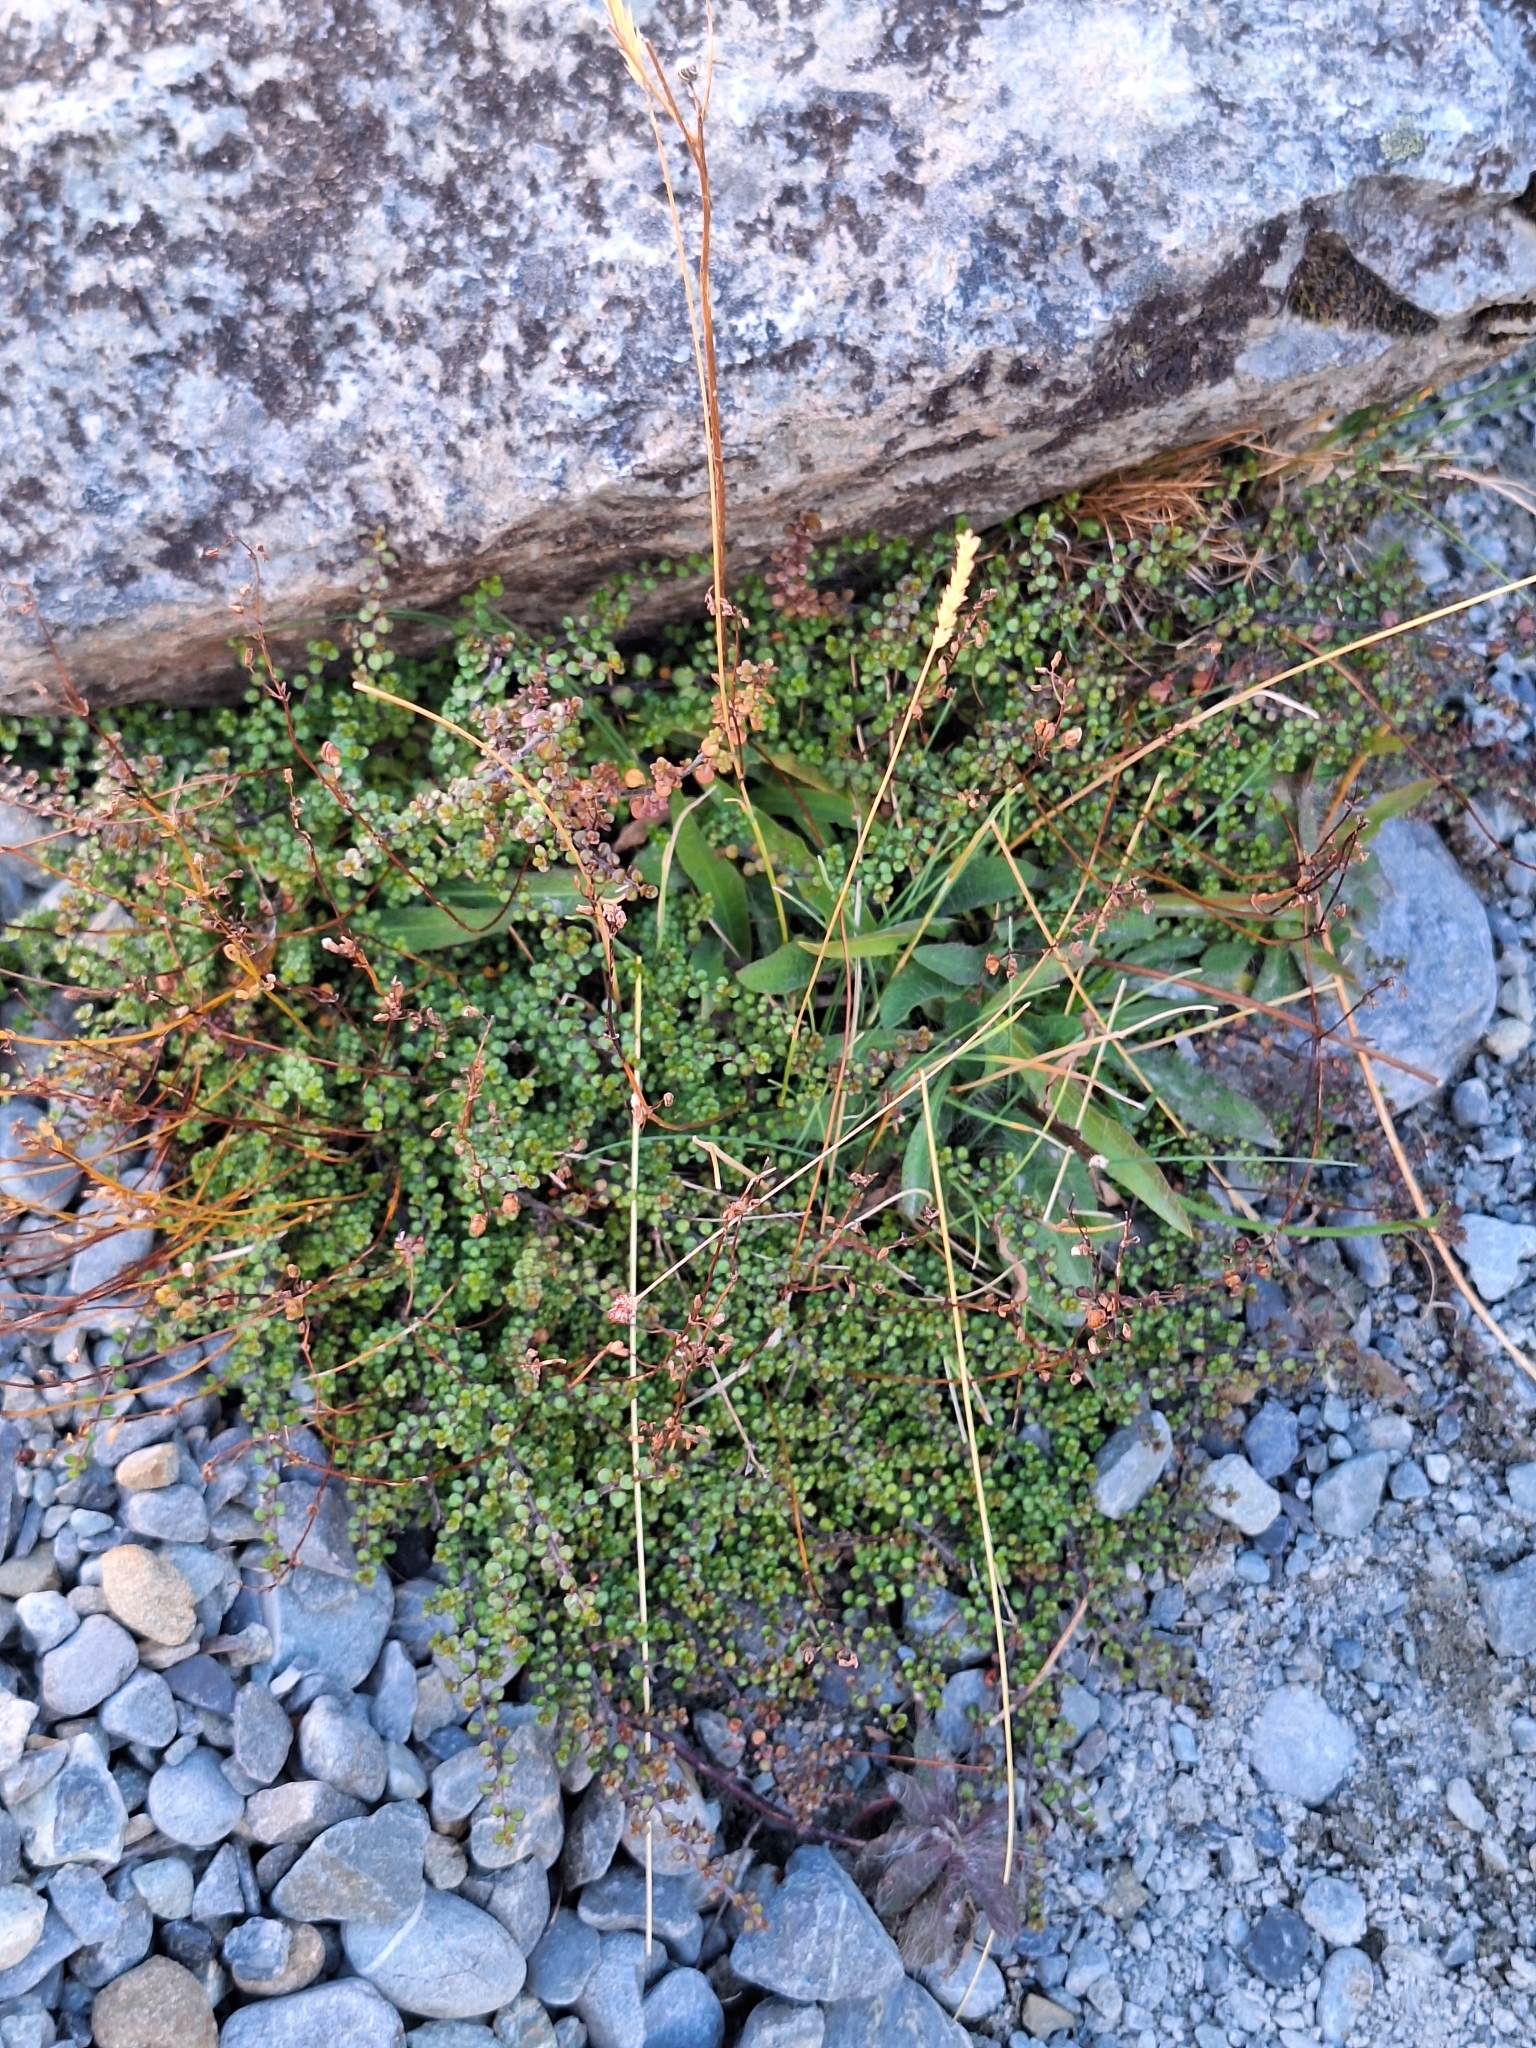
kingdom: Plantae
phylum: Tracheophyta
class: Magnoliopsida
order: Lamiales
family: Plantaginaceae
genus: Veronica
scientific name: Veronica decora
